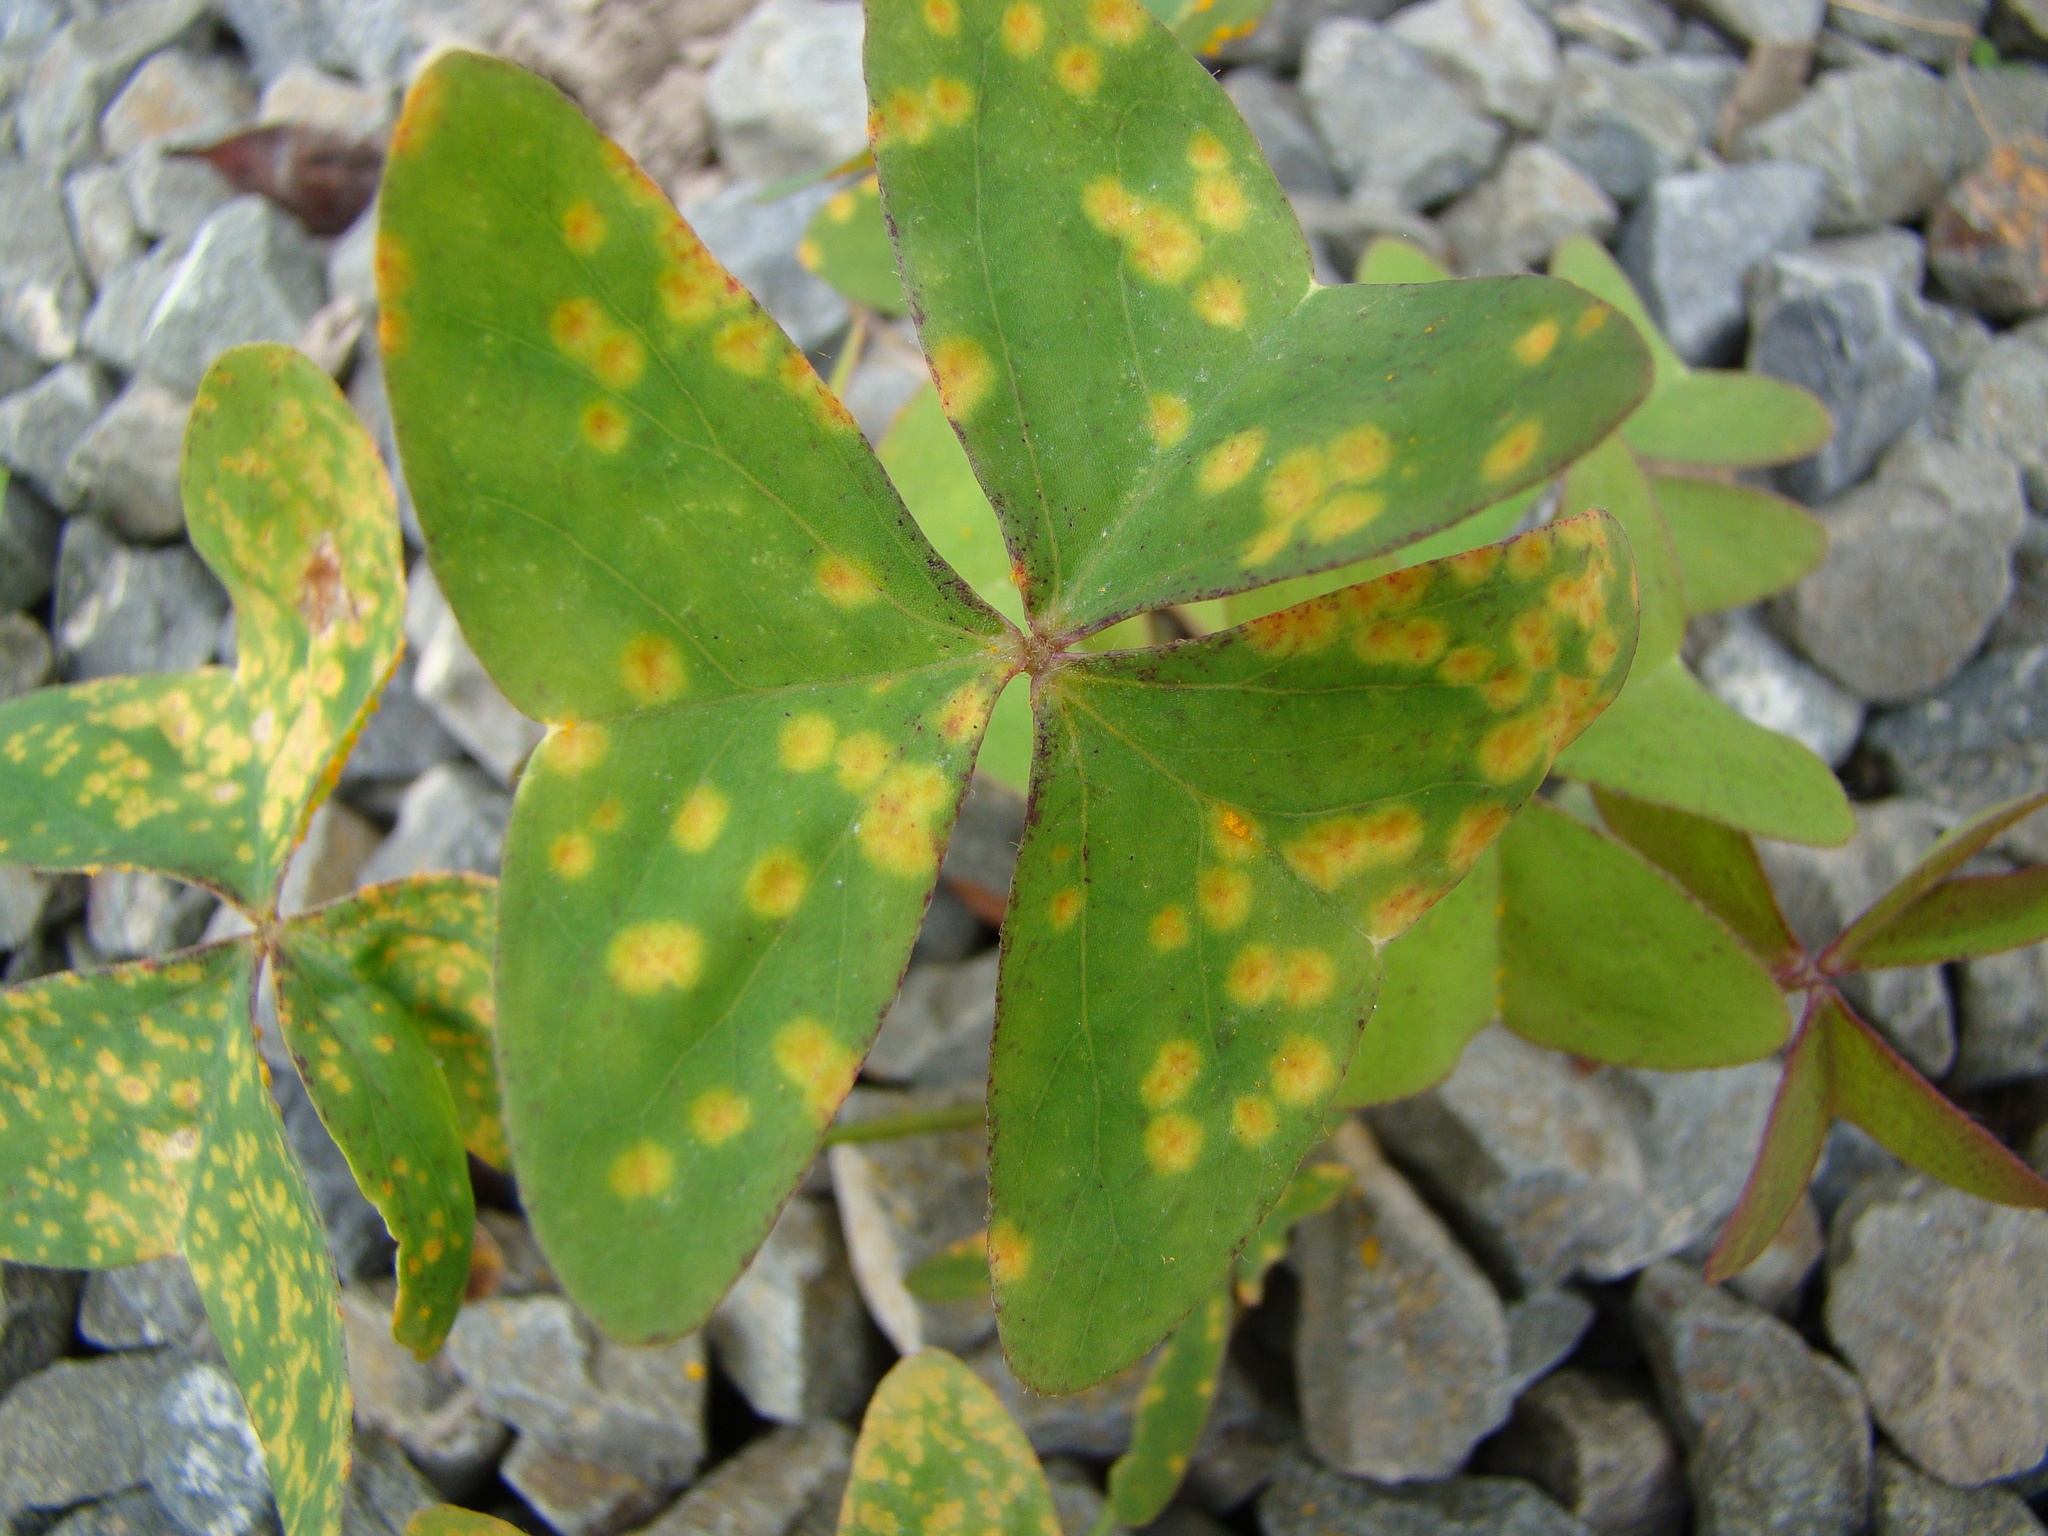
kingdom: Fungi
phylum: Basidiomycota
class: Pucciniomycetes
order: Pucciniales
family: Pucciniaceae
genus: Puccinia
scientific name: Puccinia oxalidis
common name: Oxalis rust
